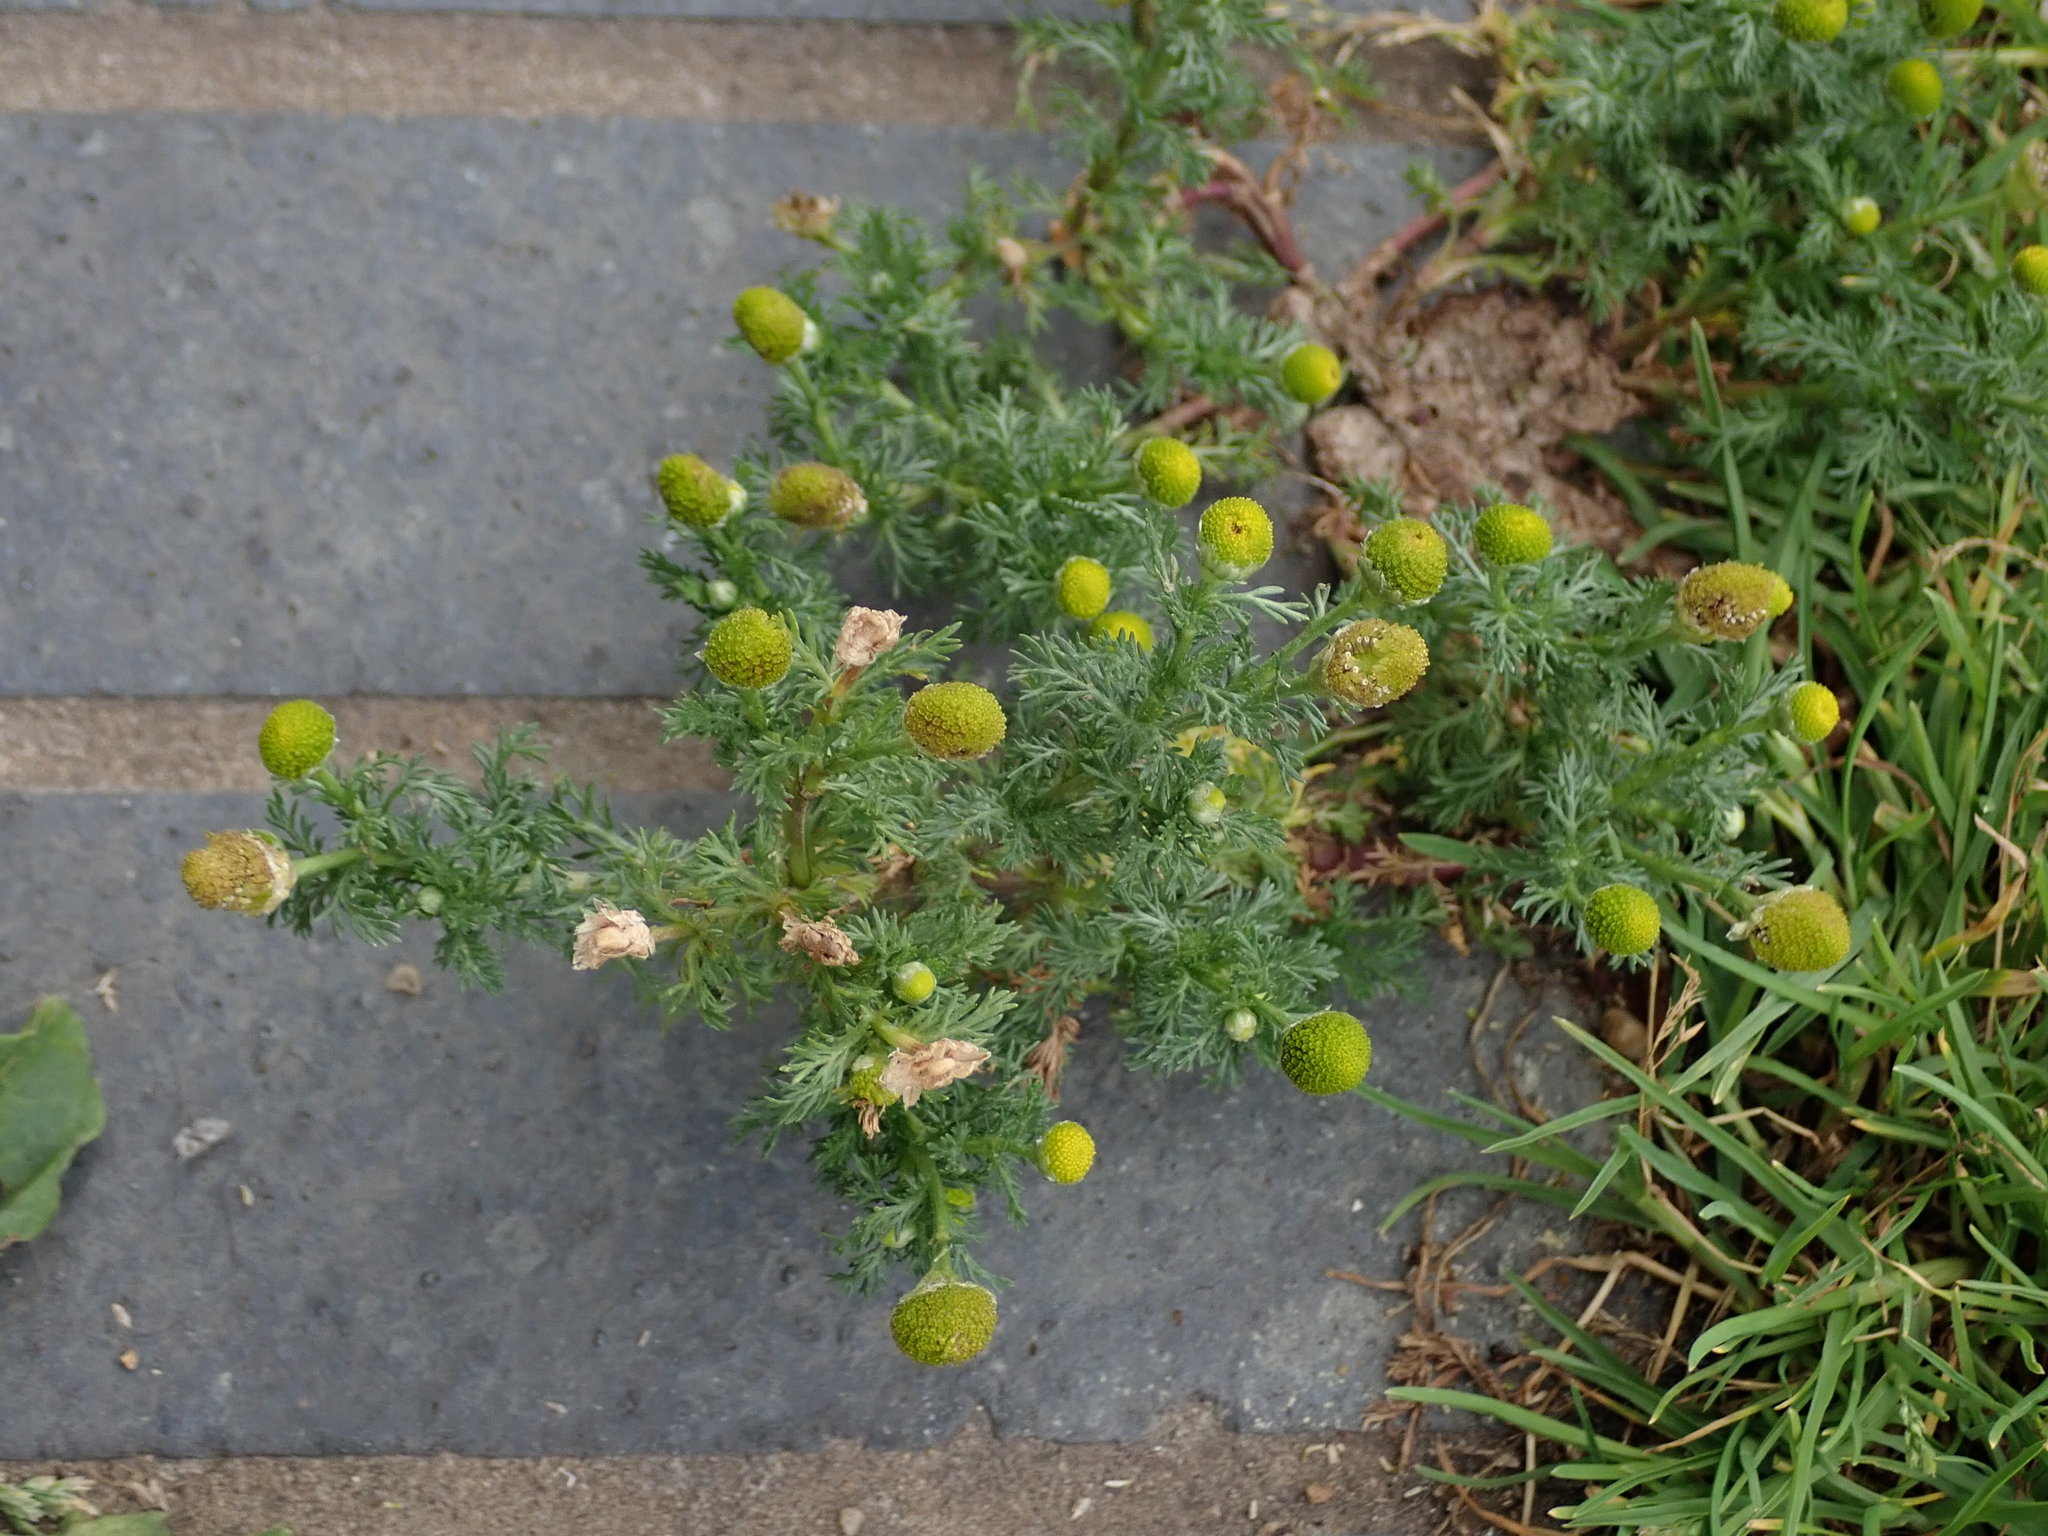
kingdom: Plantae
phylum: Tracheophyta
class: Magnoliopsida
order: Asterales
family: Asteraceae
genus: Matricaria
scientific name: Matricaria discoidea
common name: Disc mayweed
